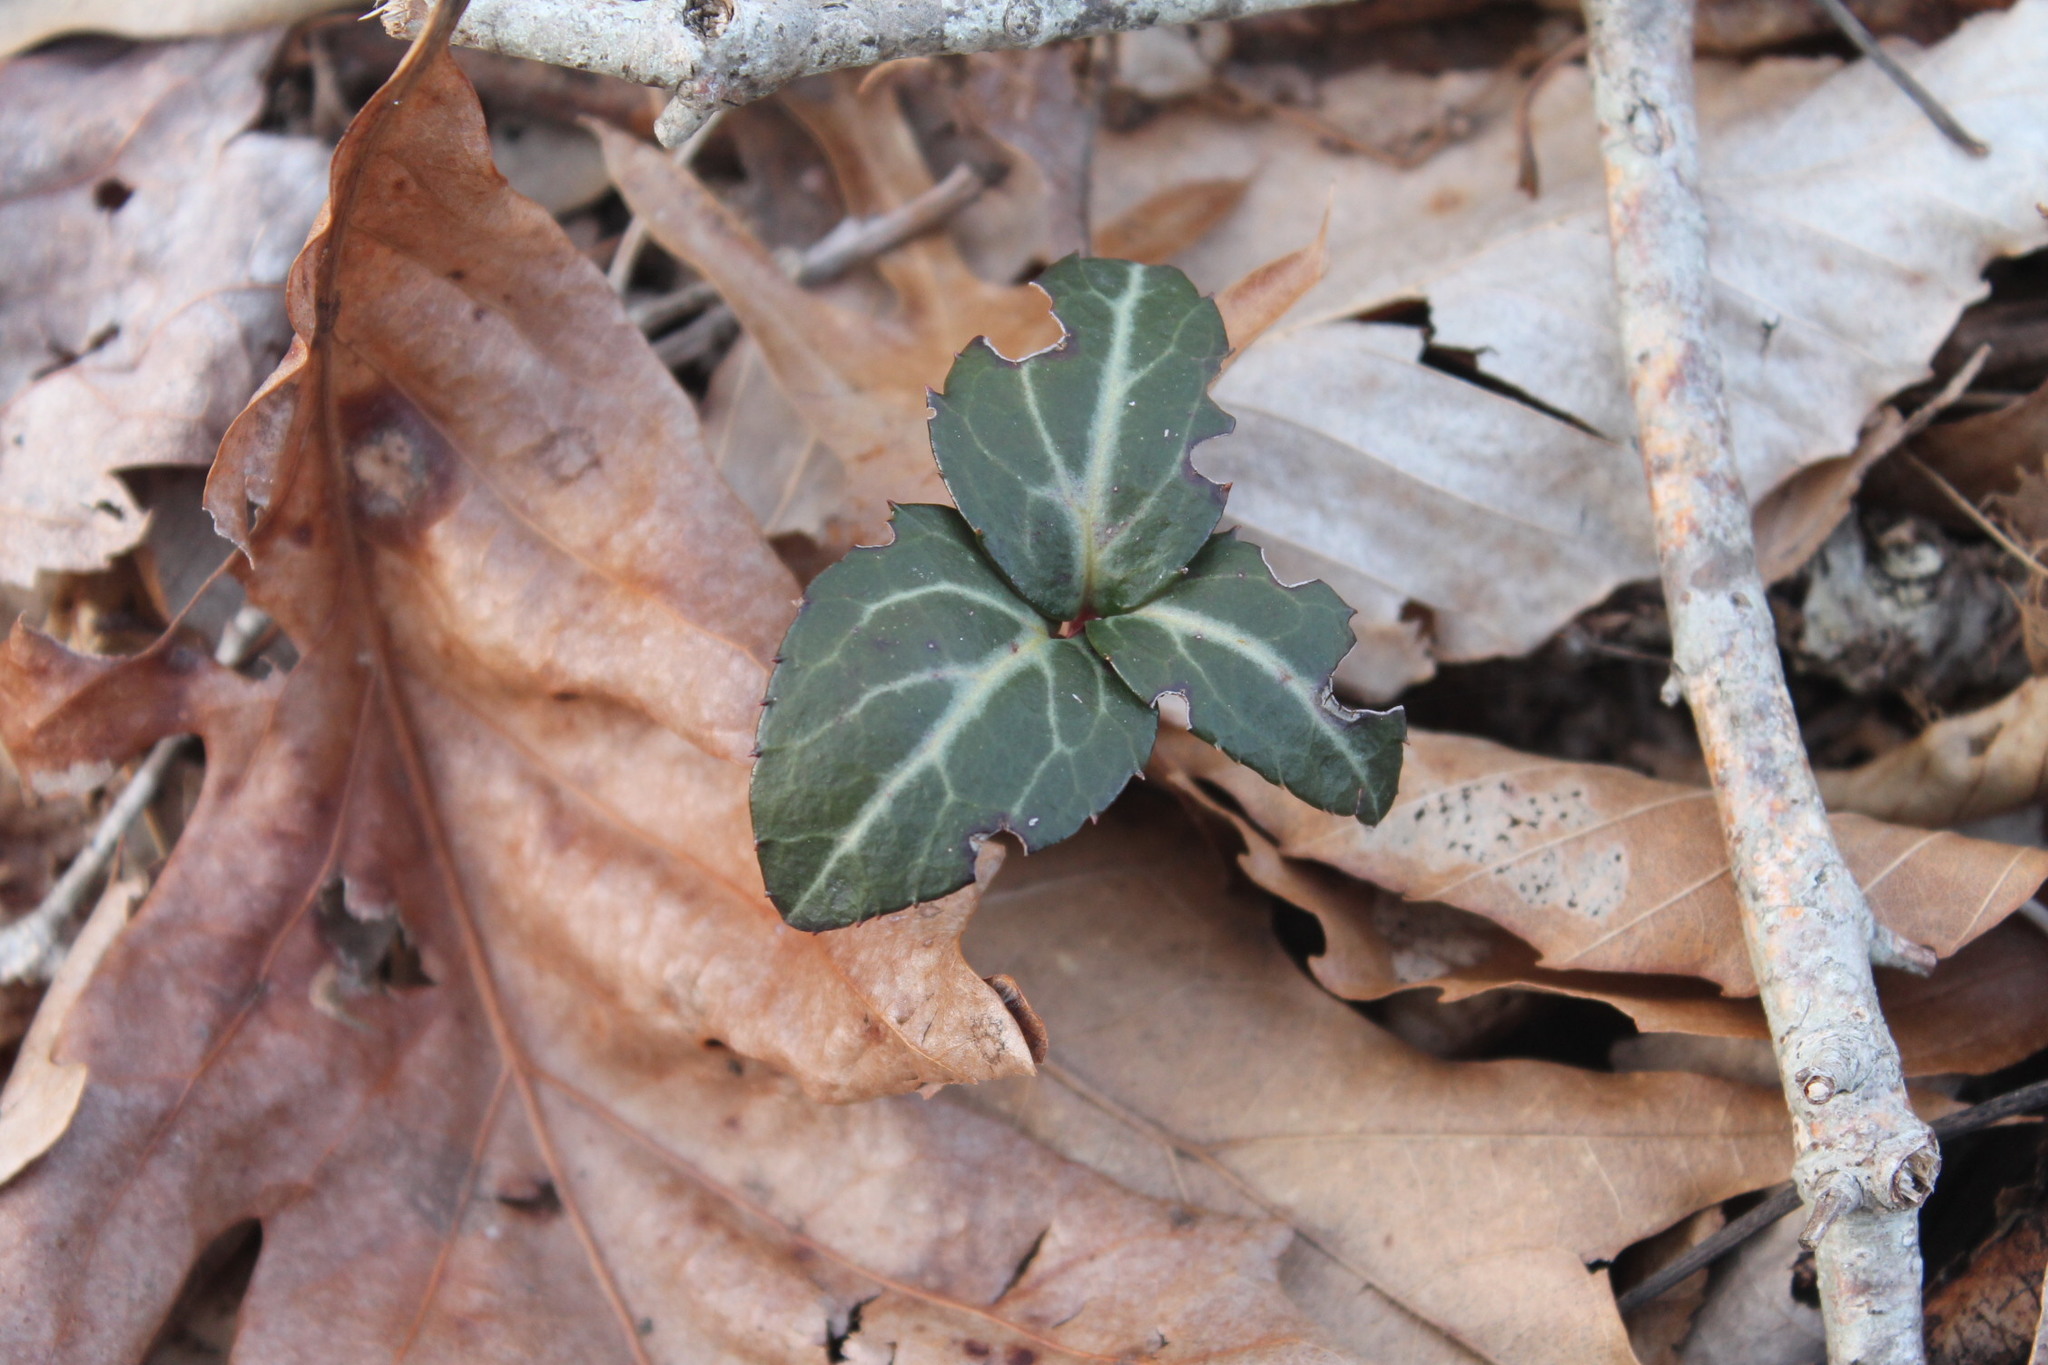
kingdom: Plantae
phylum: Tracheophyta
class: Magnoliopsida
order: Ericales
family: Ericaceae
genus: Chimaphila
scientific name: Chimaphila maculata
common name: Spotted pipsissewa
